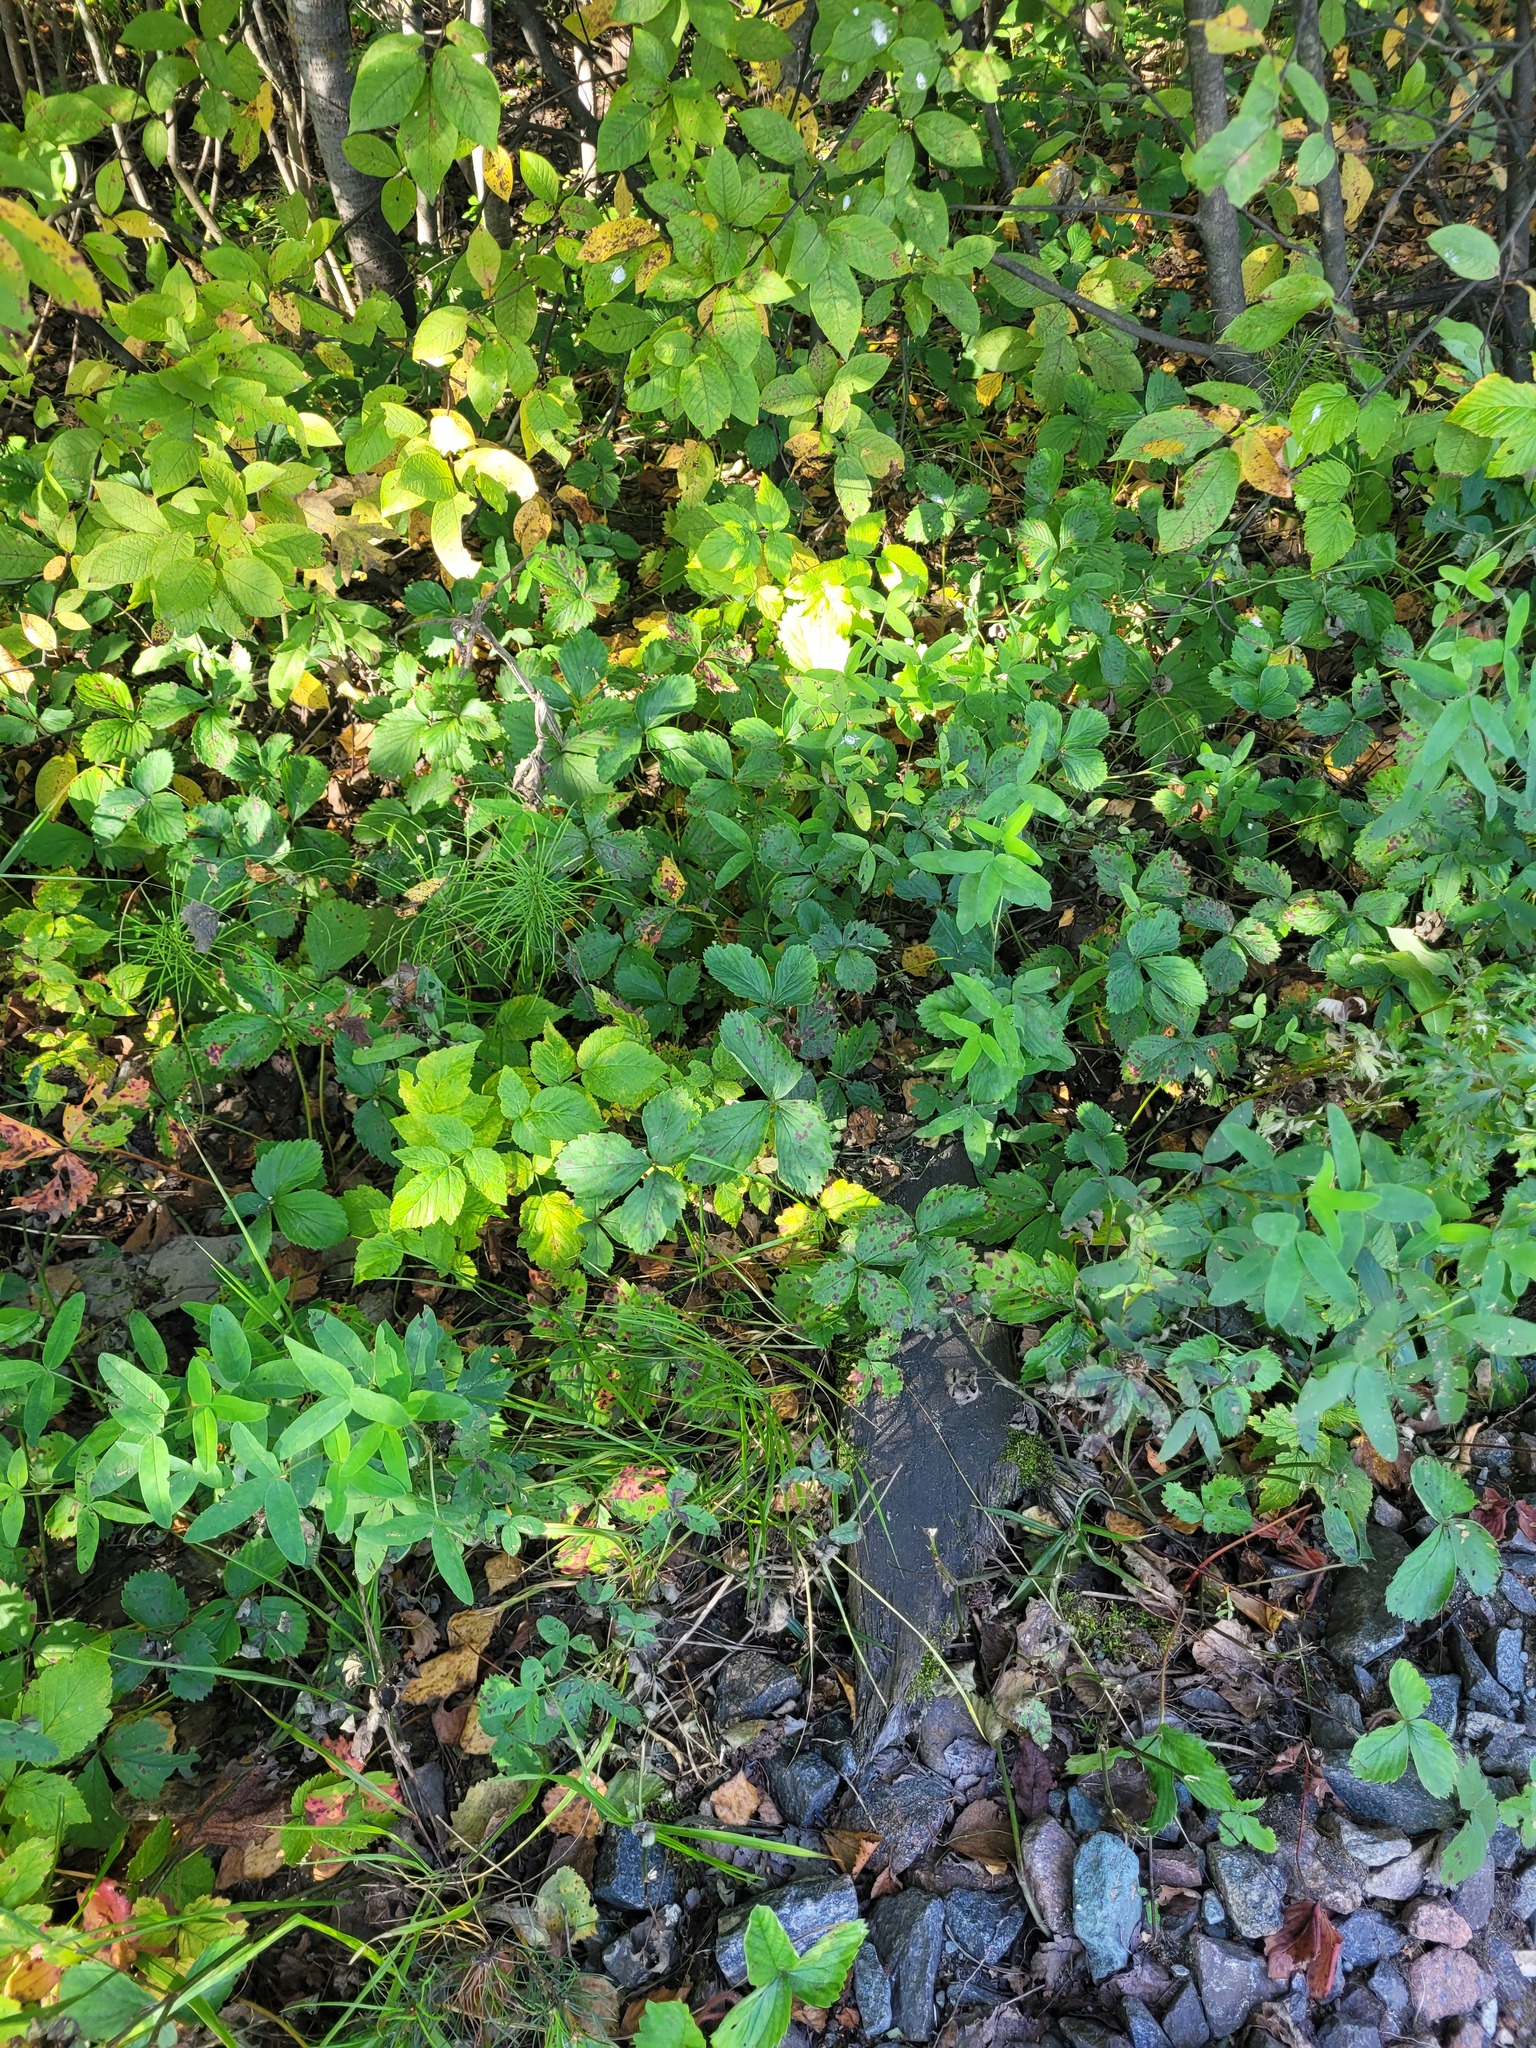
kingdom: Plantae
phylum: Tracheophyta
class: Magnoliopsida
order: Rosales
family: Rosaceae
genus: Fragaria
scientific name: Fragaria ananassa
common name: Garden strawberry
